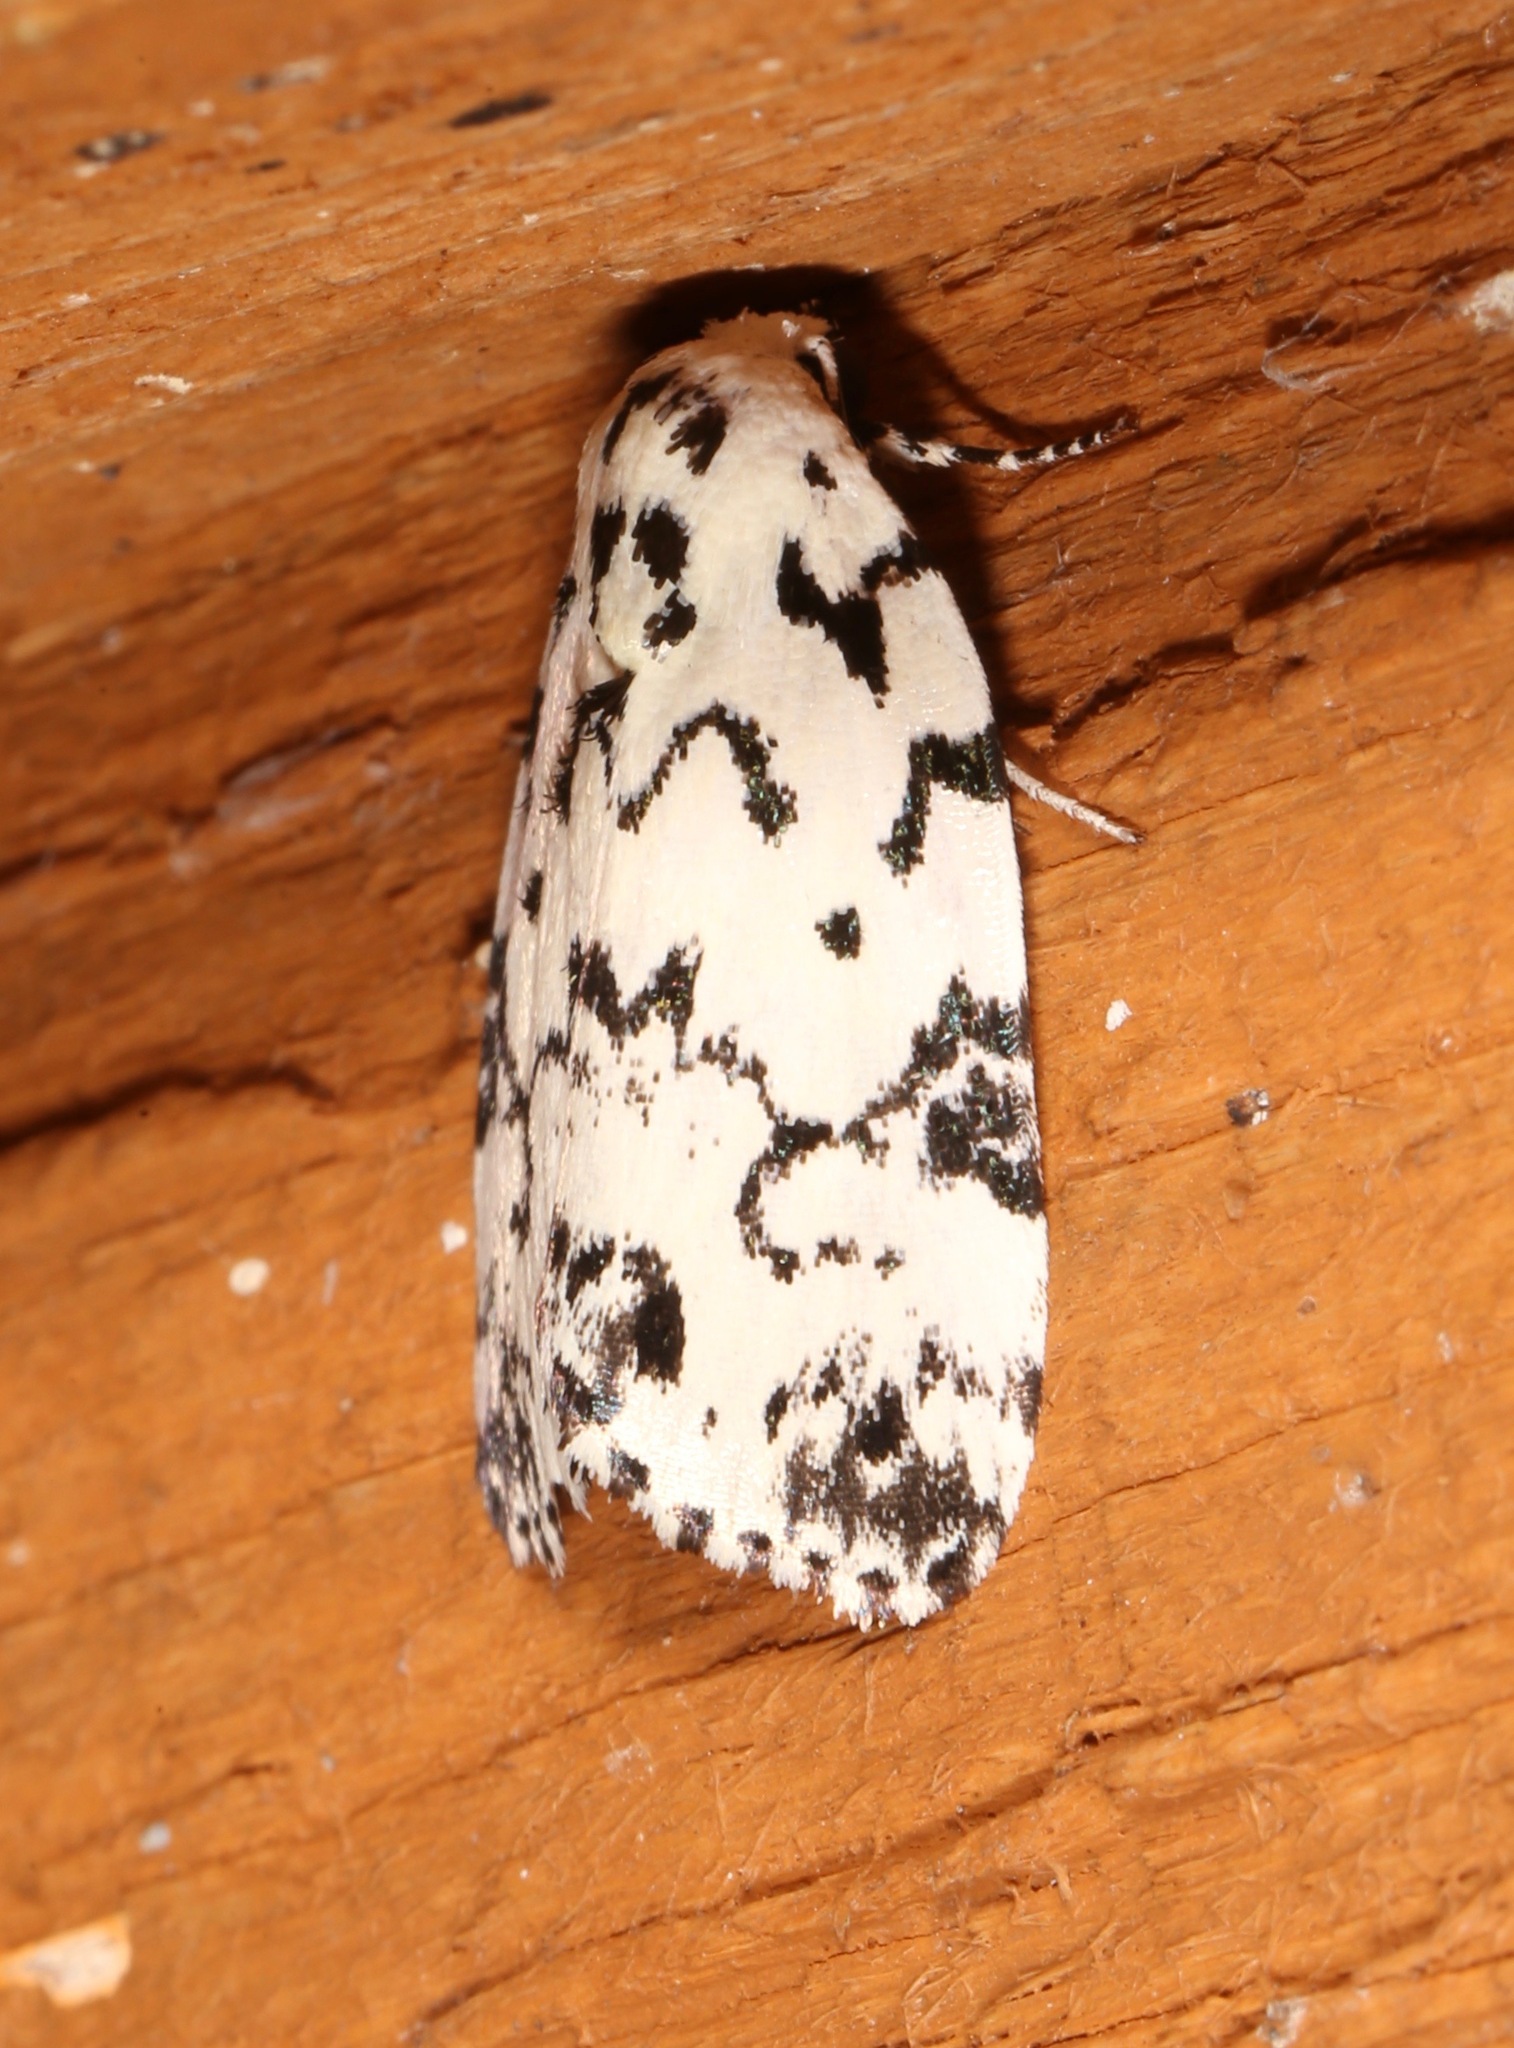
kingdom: Animalia
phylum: Arthropoda
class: Insecta
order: Lepidoptera
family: Noctuidae
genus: Polygrammate
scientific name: Polygrammate hebraeicum
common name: Hebrew moth
